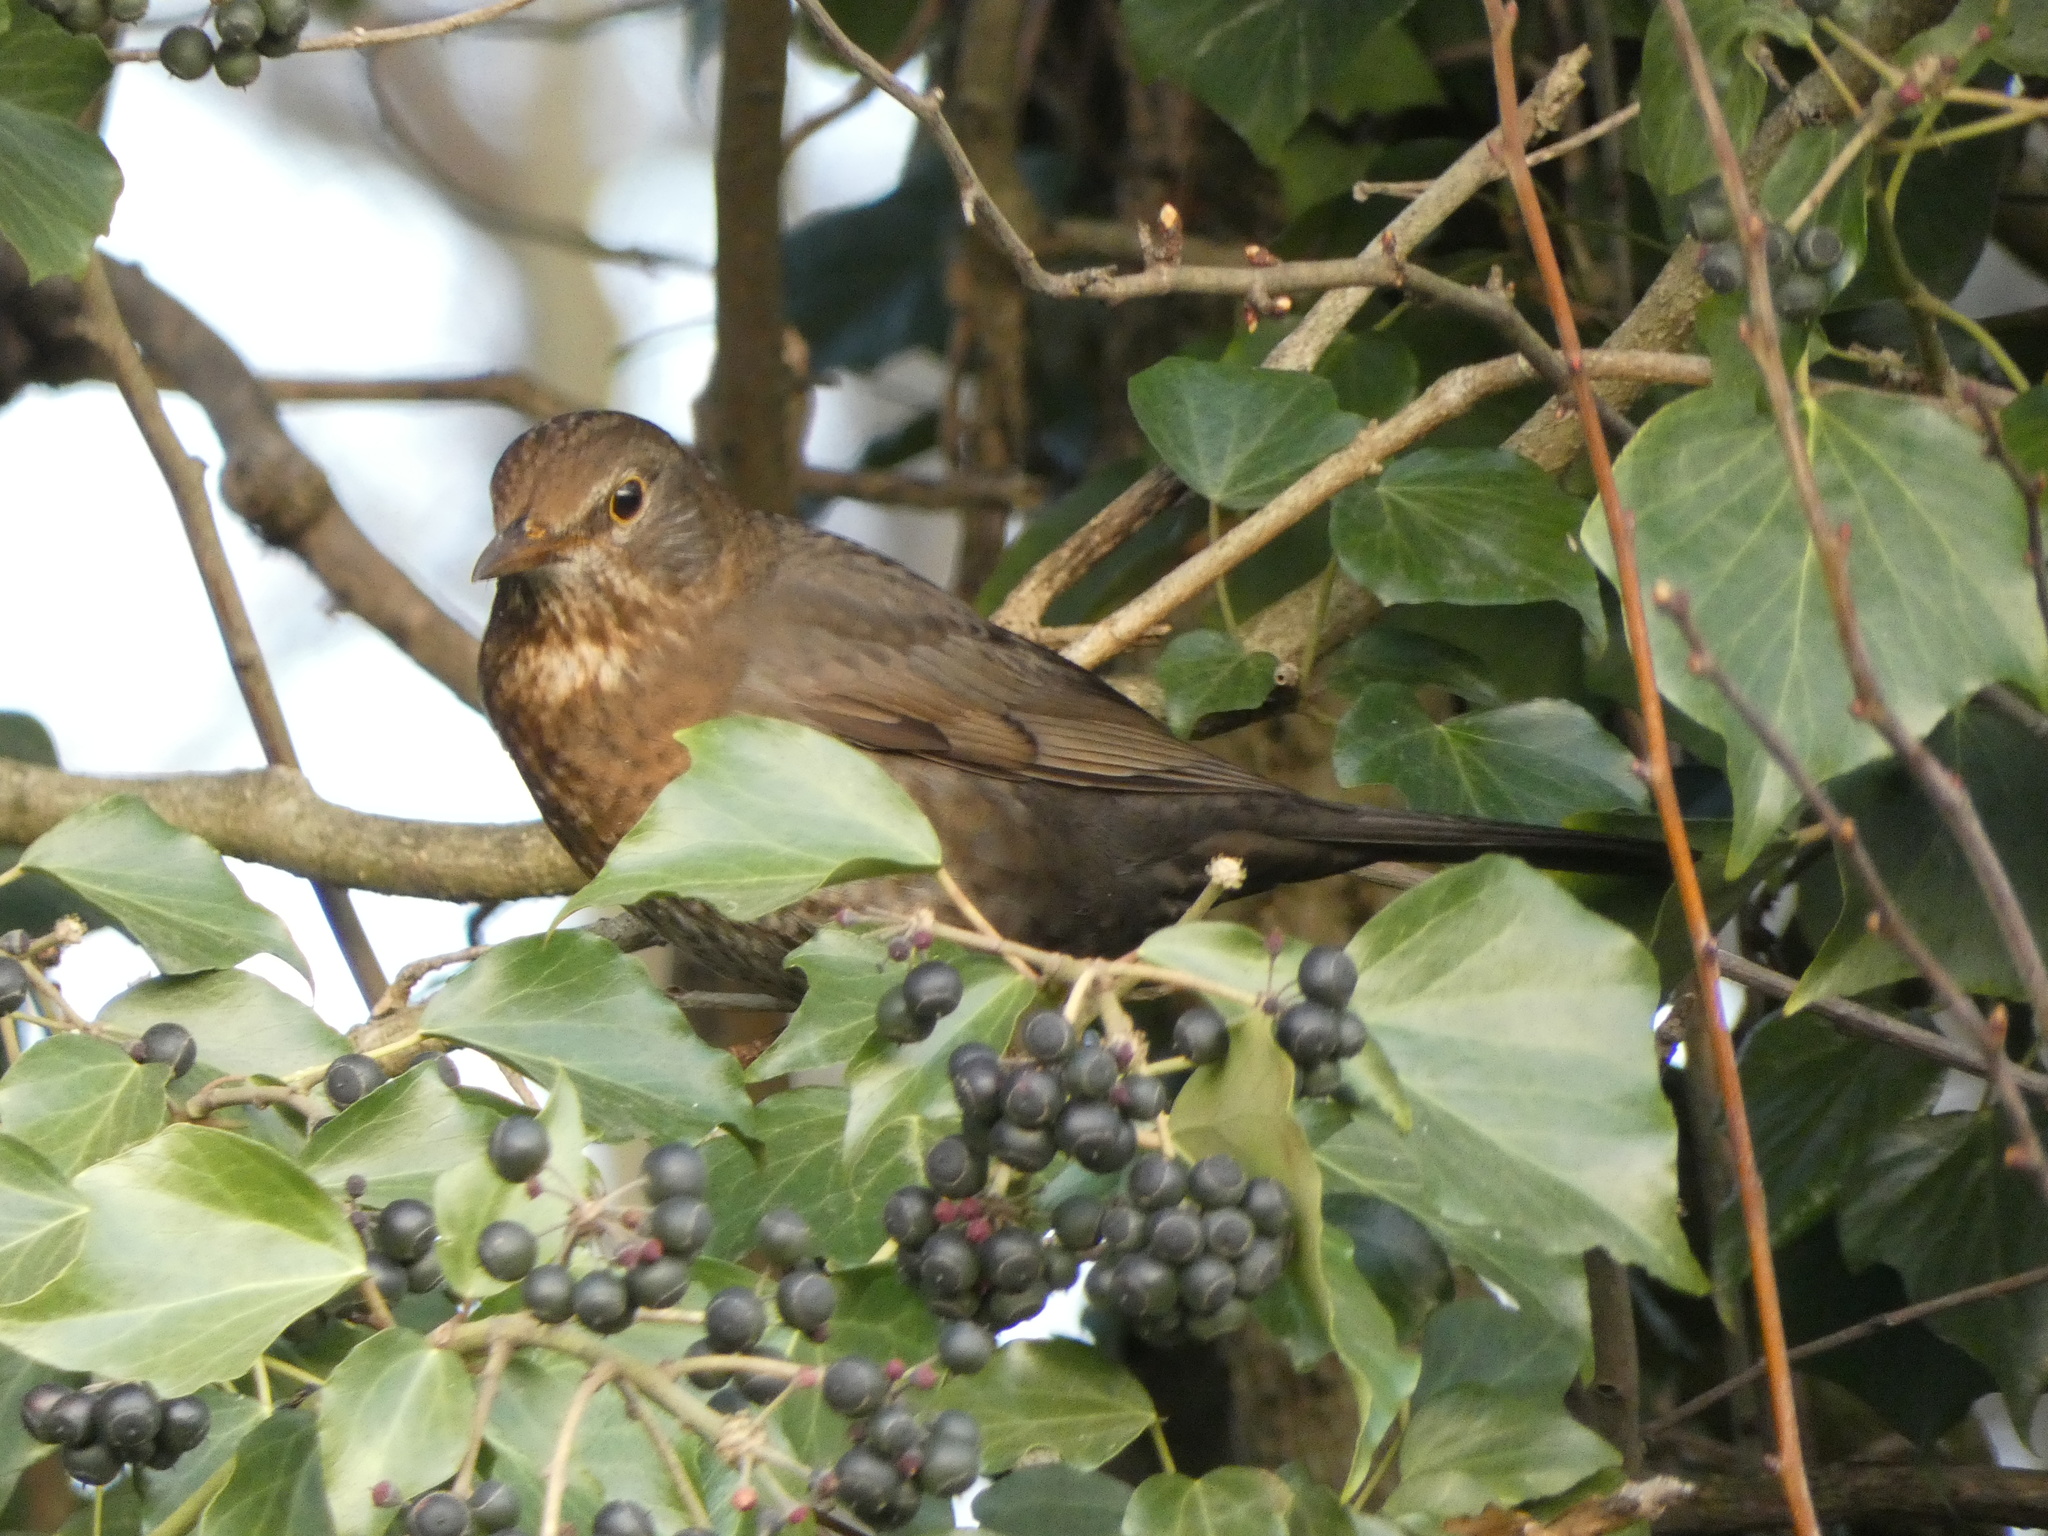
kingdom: Animalia
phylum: Chordata
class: Aves
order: Passeriformes
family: Turdidae
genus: Turdus
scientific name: Turdus merula
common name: Common blackbird
